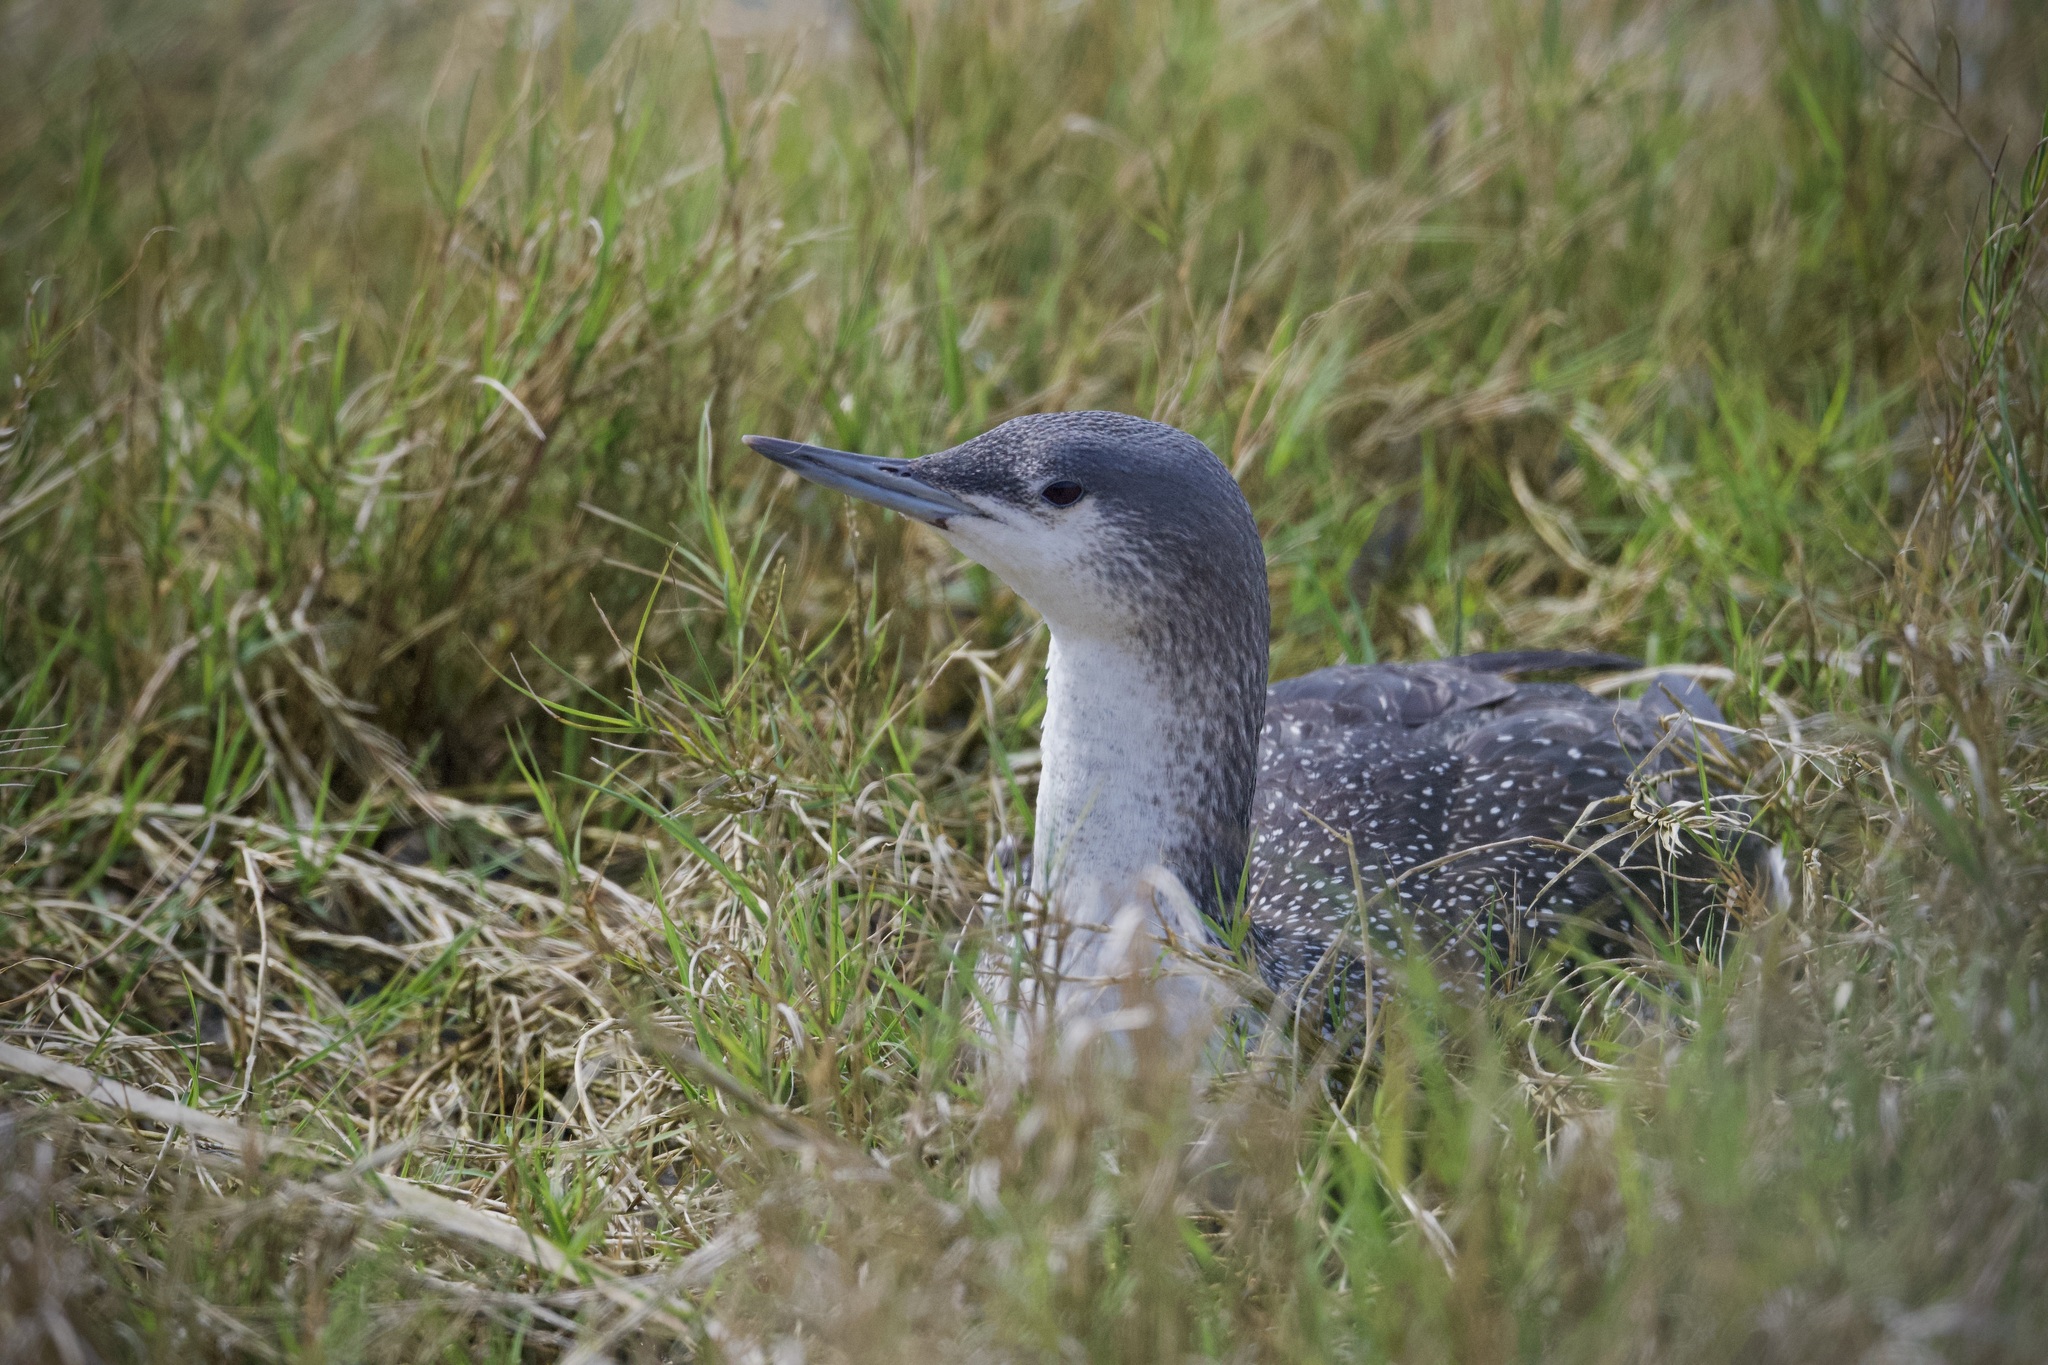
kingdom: Animalia
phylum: Chordata
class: Aves
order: Gaviiformes
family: Gaviidae
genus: Gavia
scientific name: Gavia stellata
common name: Red-throated loon
